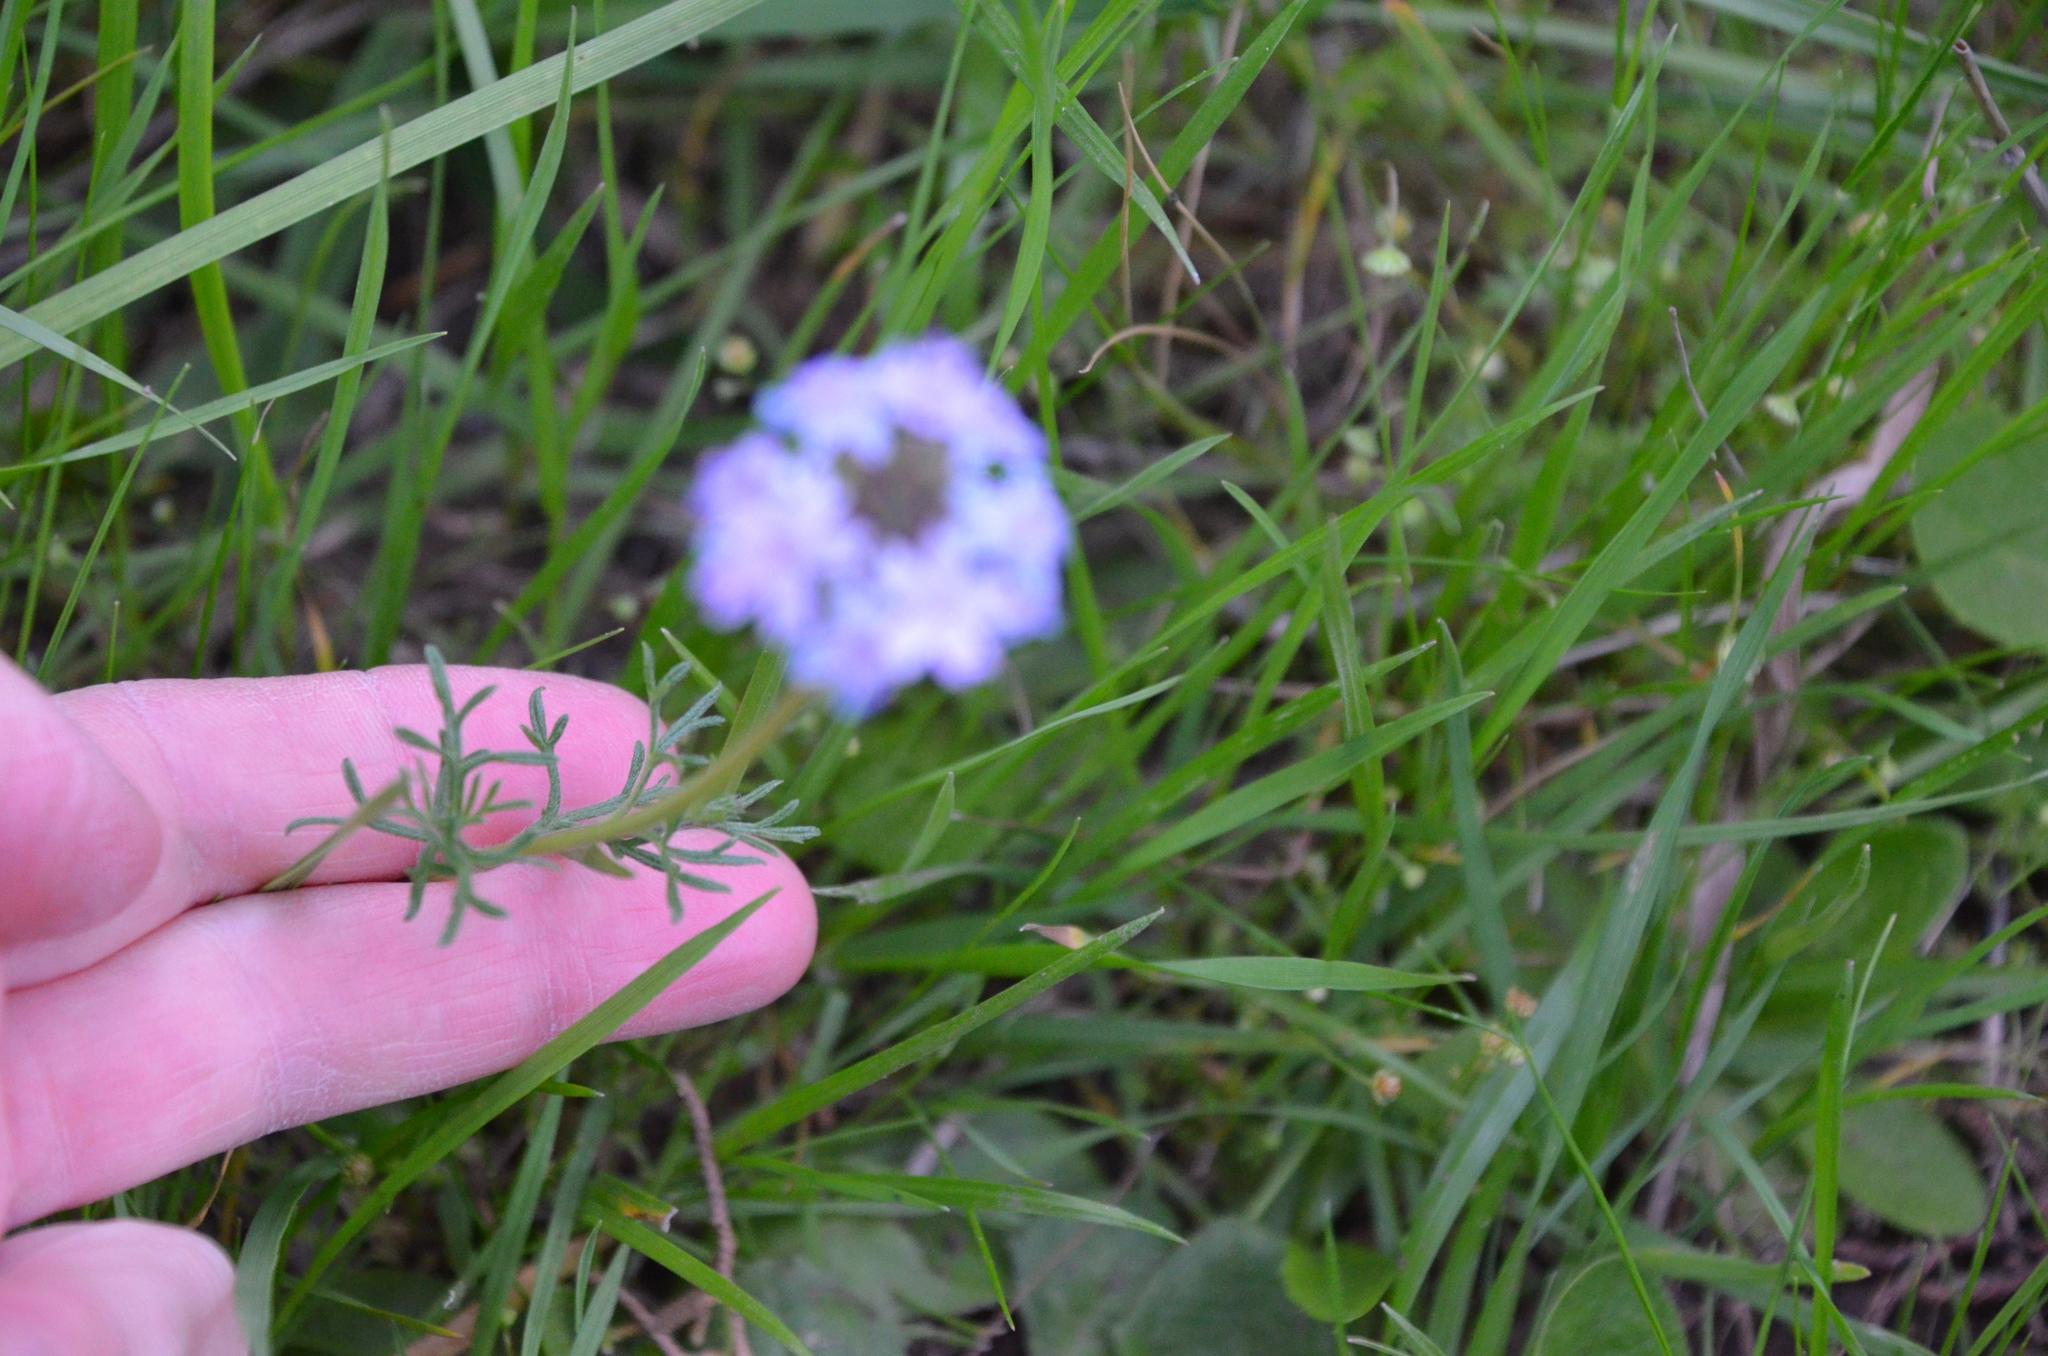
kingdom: Plantae
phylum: Tracheophyta
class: Magnoliopsida
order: Lamiales
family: Verbenaceae
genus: Verbena
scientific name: Verbena tenera
